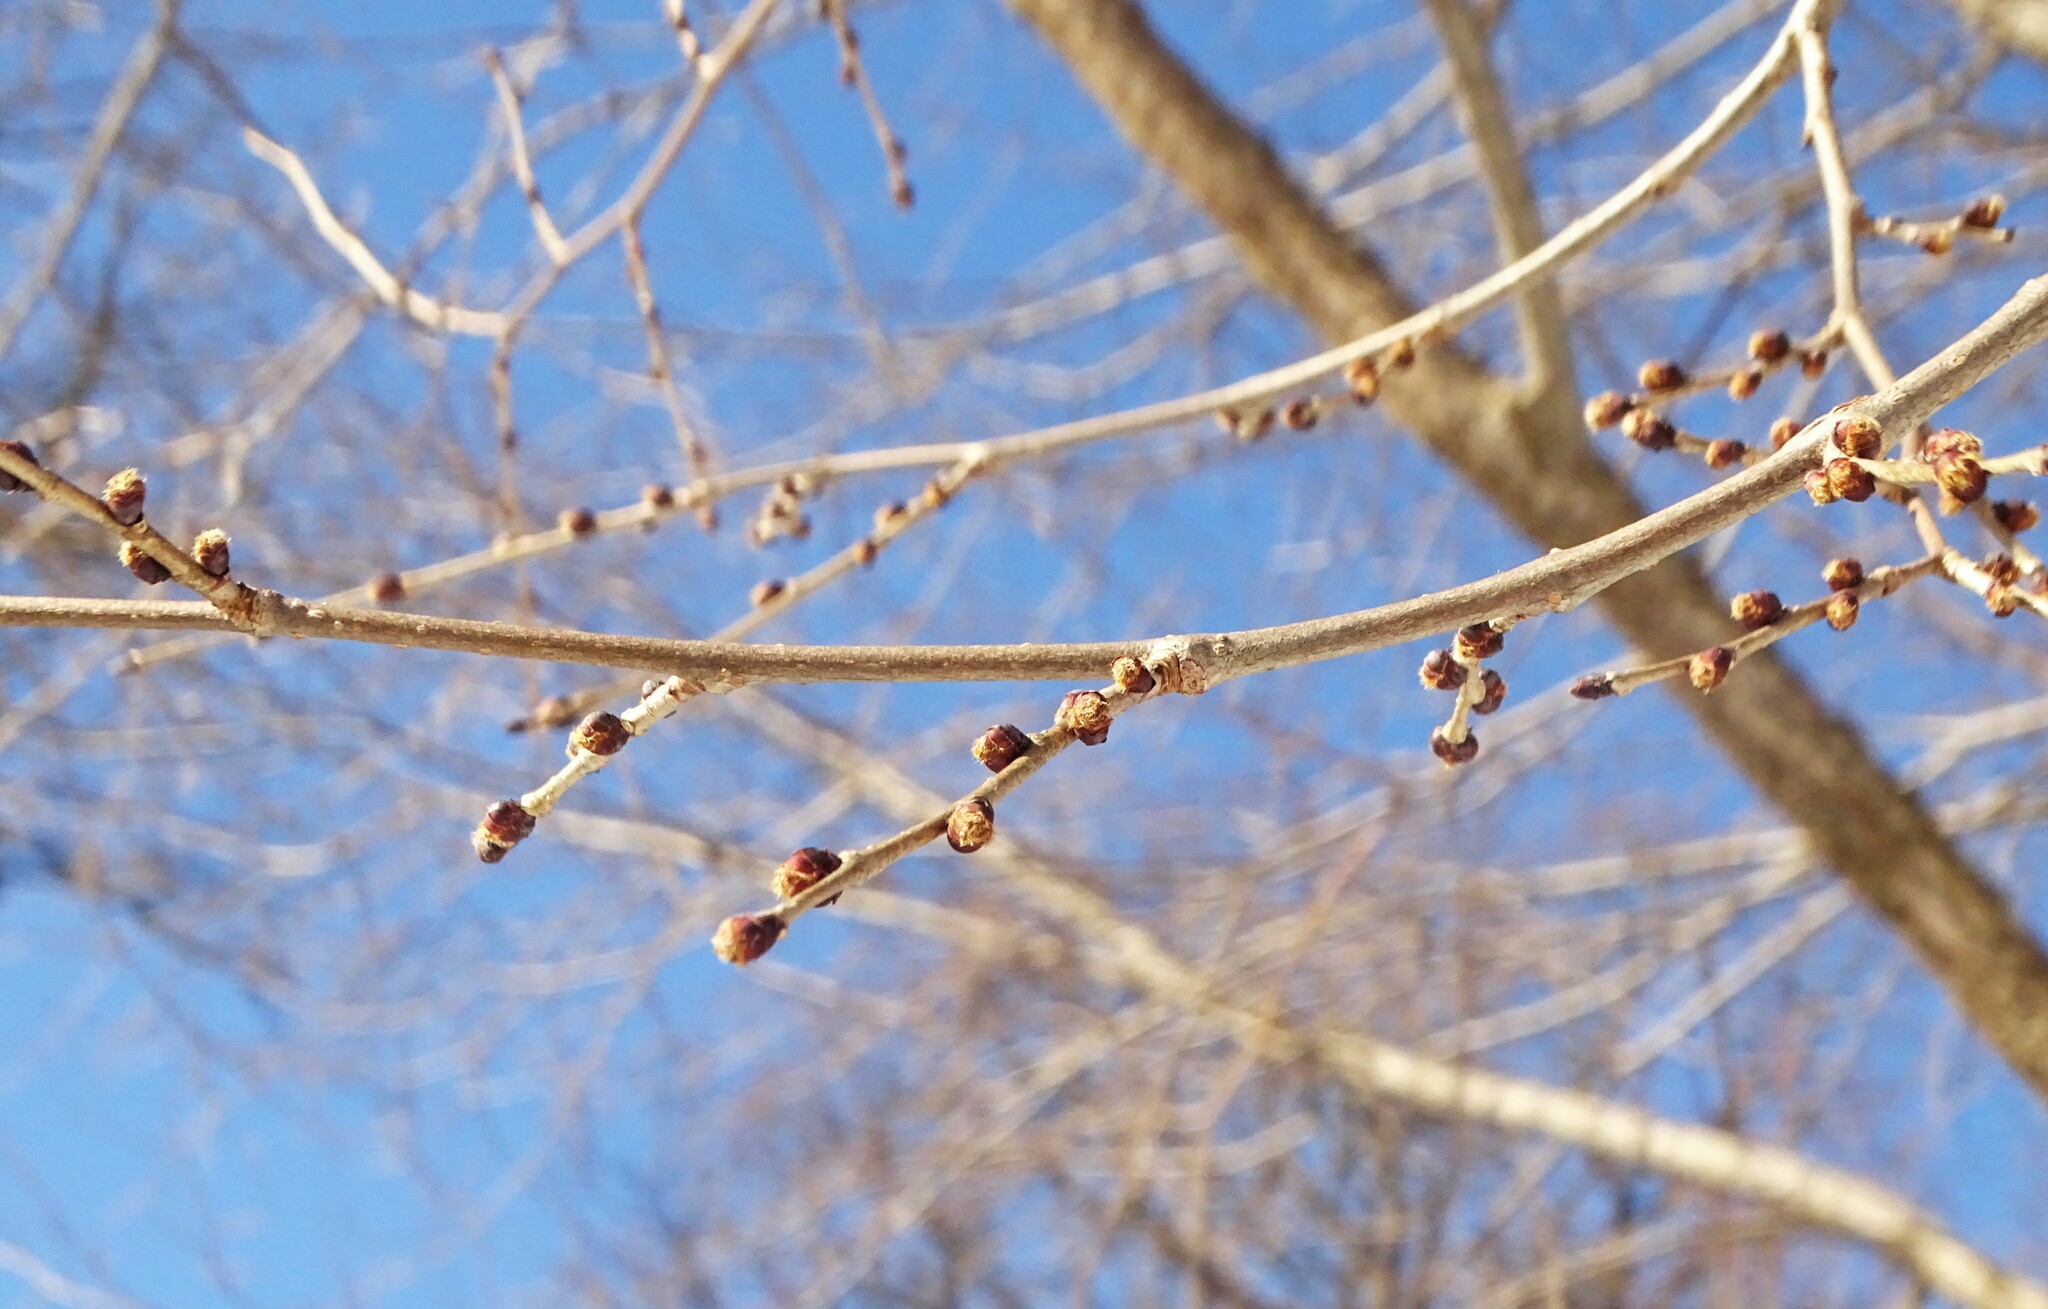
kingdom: Plantae
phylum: Tracheophyta
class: Magnoliopsida
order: Rosales
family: Ulmaceae
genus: Ulmus
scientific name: Ulmus americana
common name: American elm
